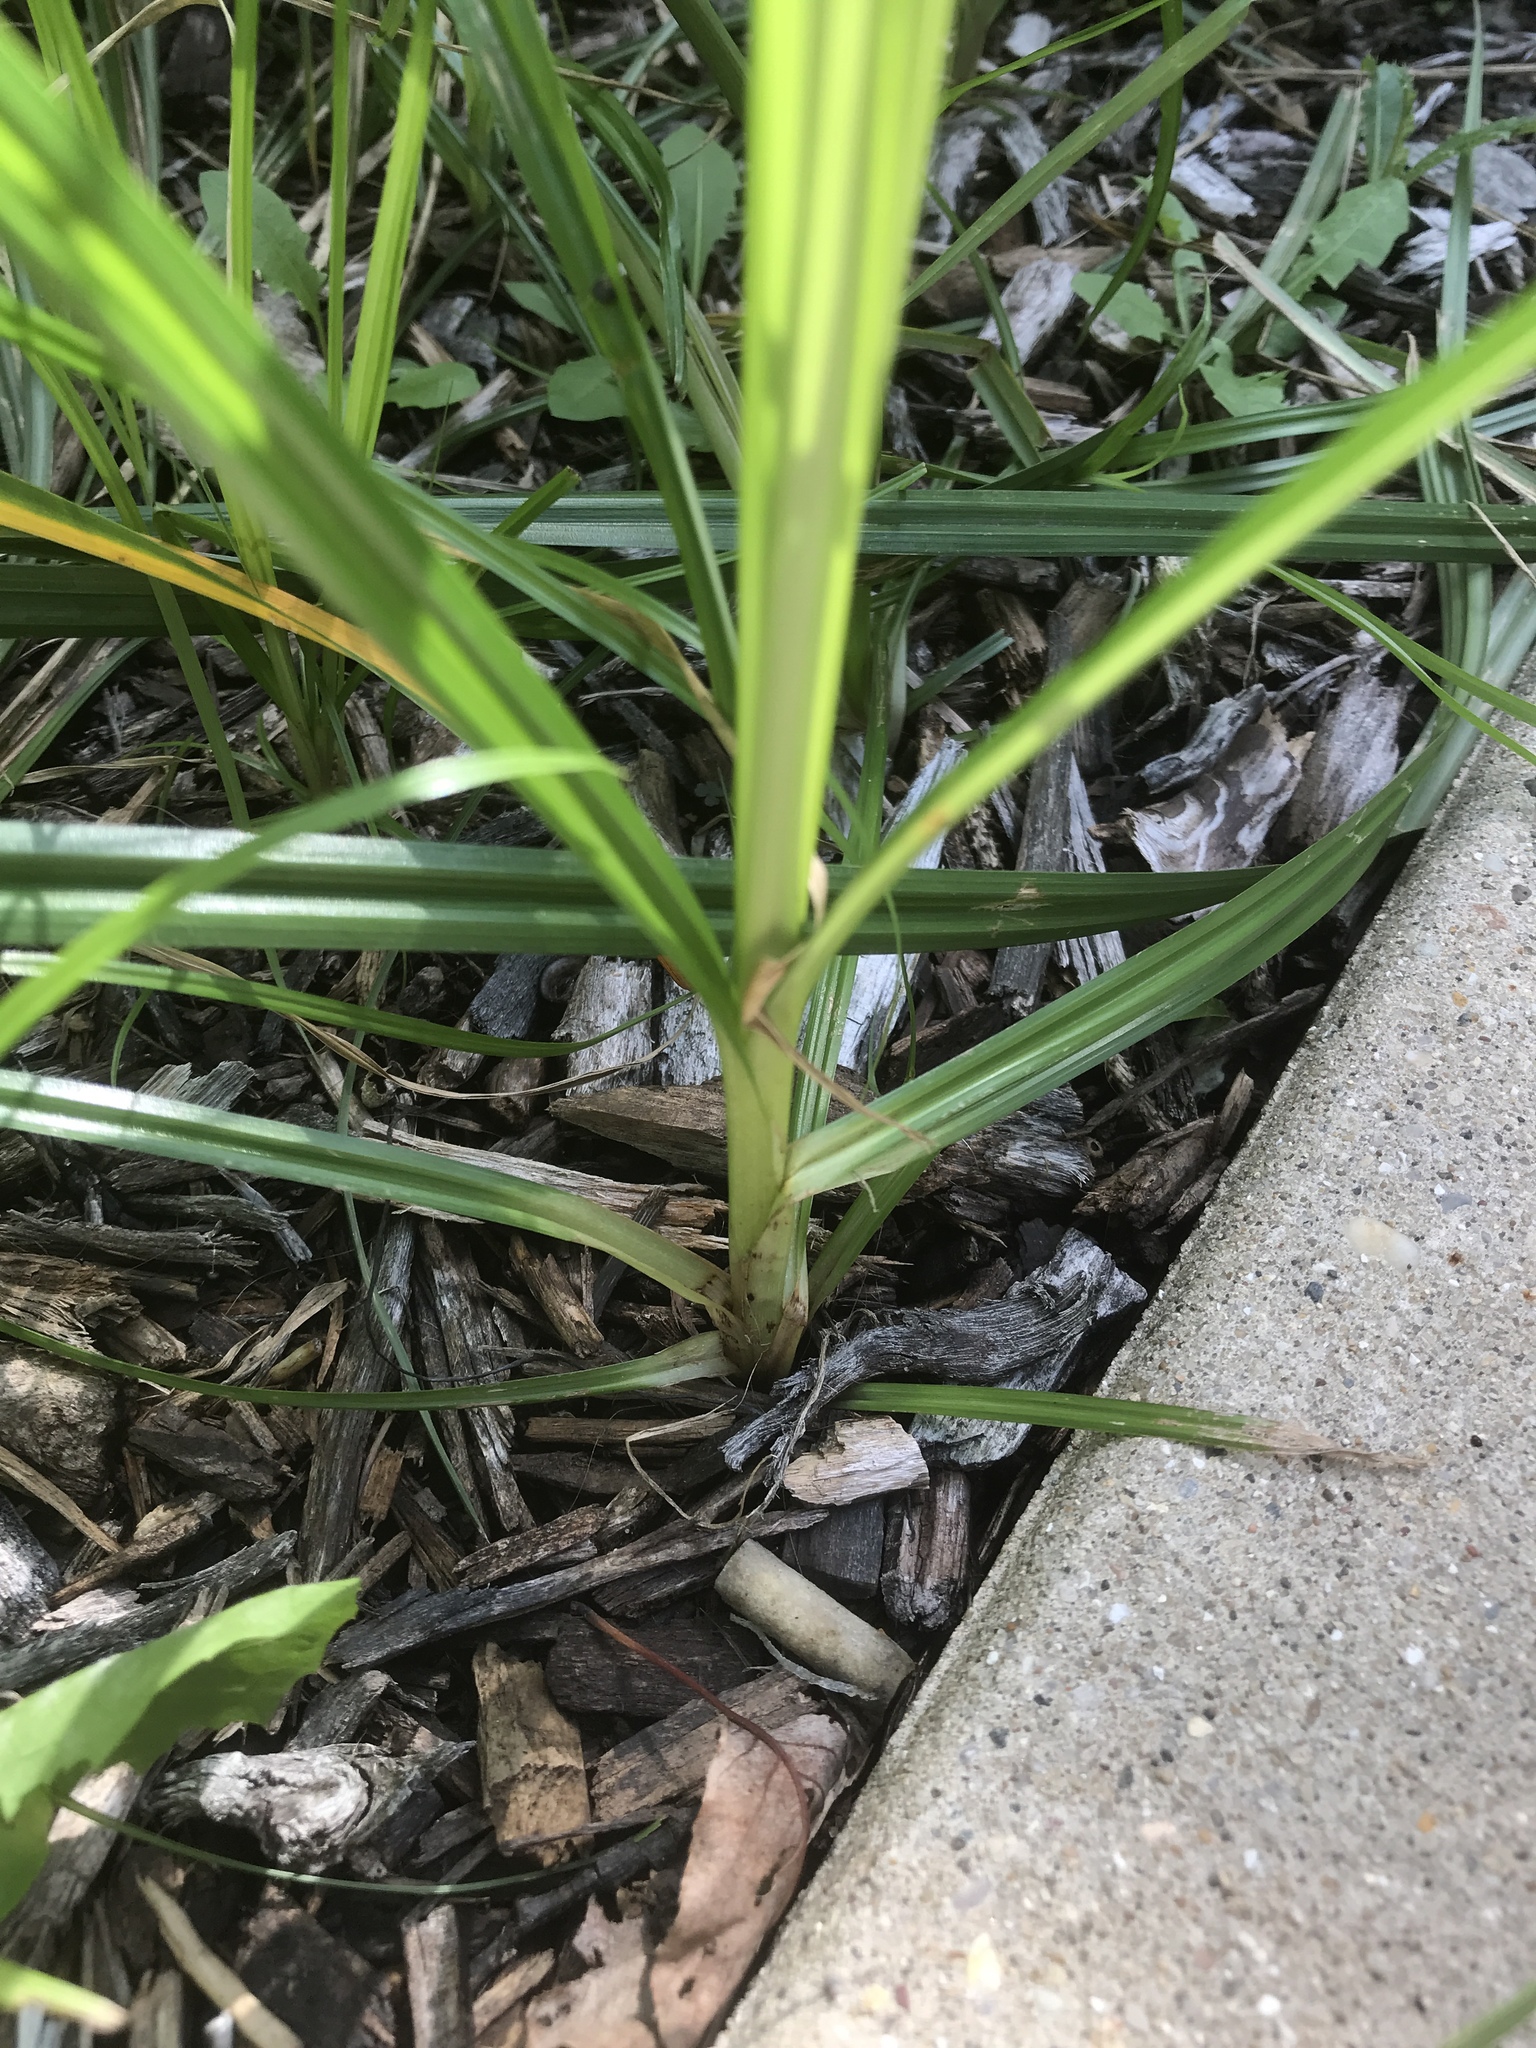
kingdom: Plantae
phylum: Tracheophyta
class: Liliopsida
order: Poales
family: Cyperaceae
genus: Cyperus
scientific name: Cyperus strigosus
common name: False nutsedge
